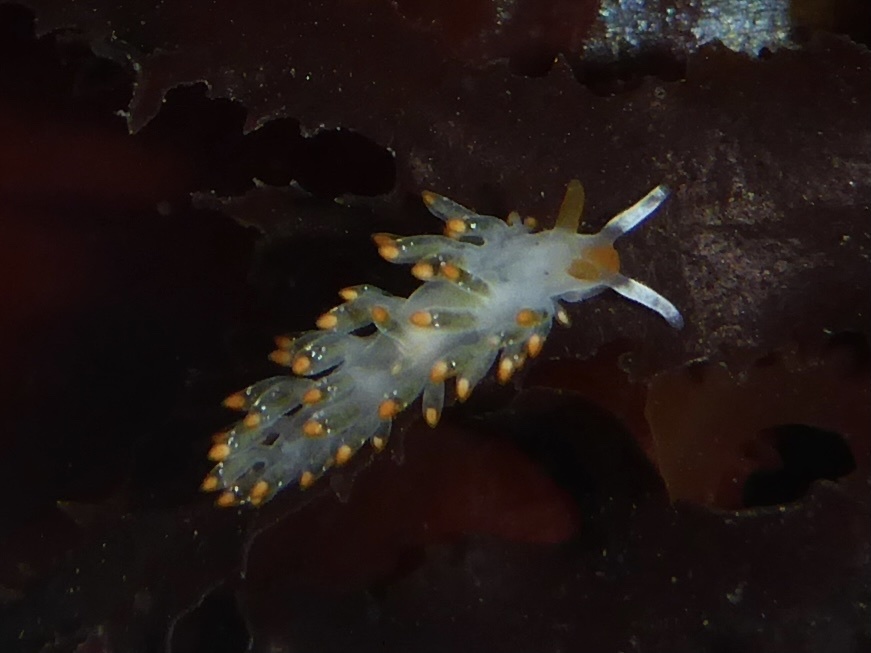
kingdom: Animalia
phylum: Mollusca
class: Gastropoda
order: Nudibranchia
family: Trinchesiidae
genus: Diaphoreolis
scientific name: Diaphoreolis lagunae
